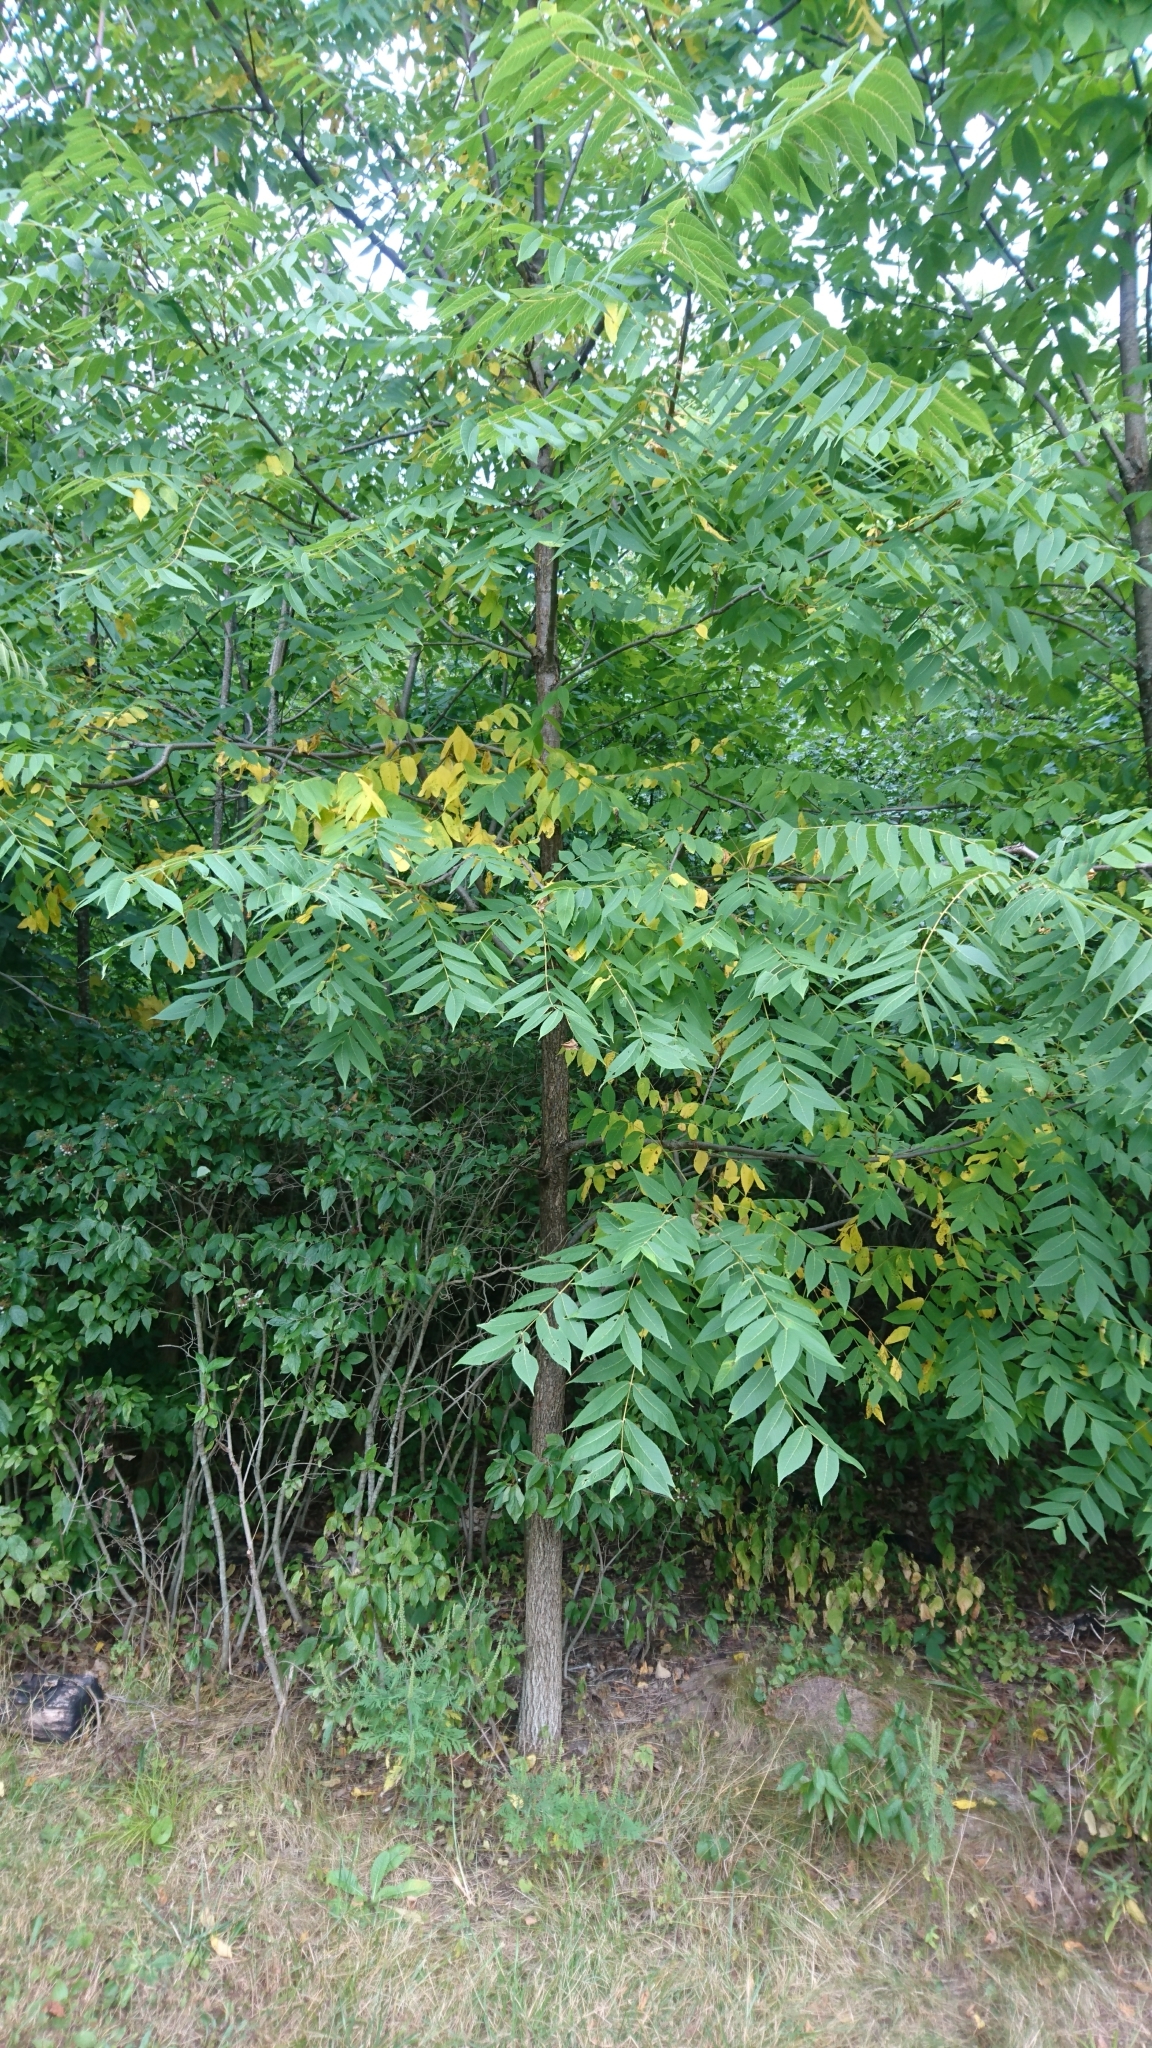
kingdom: Plantae
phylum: Tracheophyta
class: Magnoliopsida
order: Fagales
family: Juglandaceae
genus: Juglans
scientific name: Juglans nigra
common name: Black walnut
